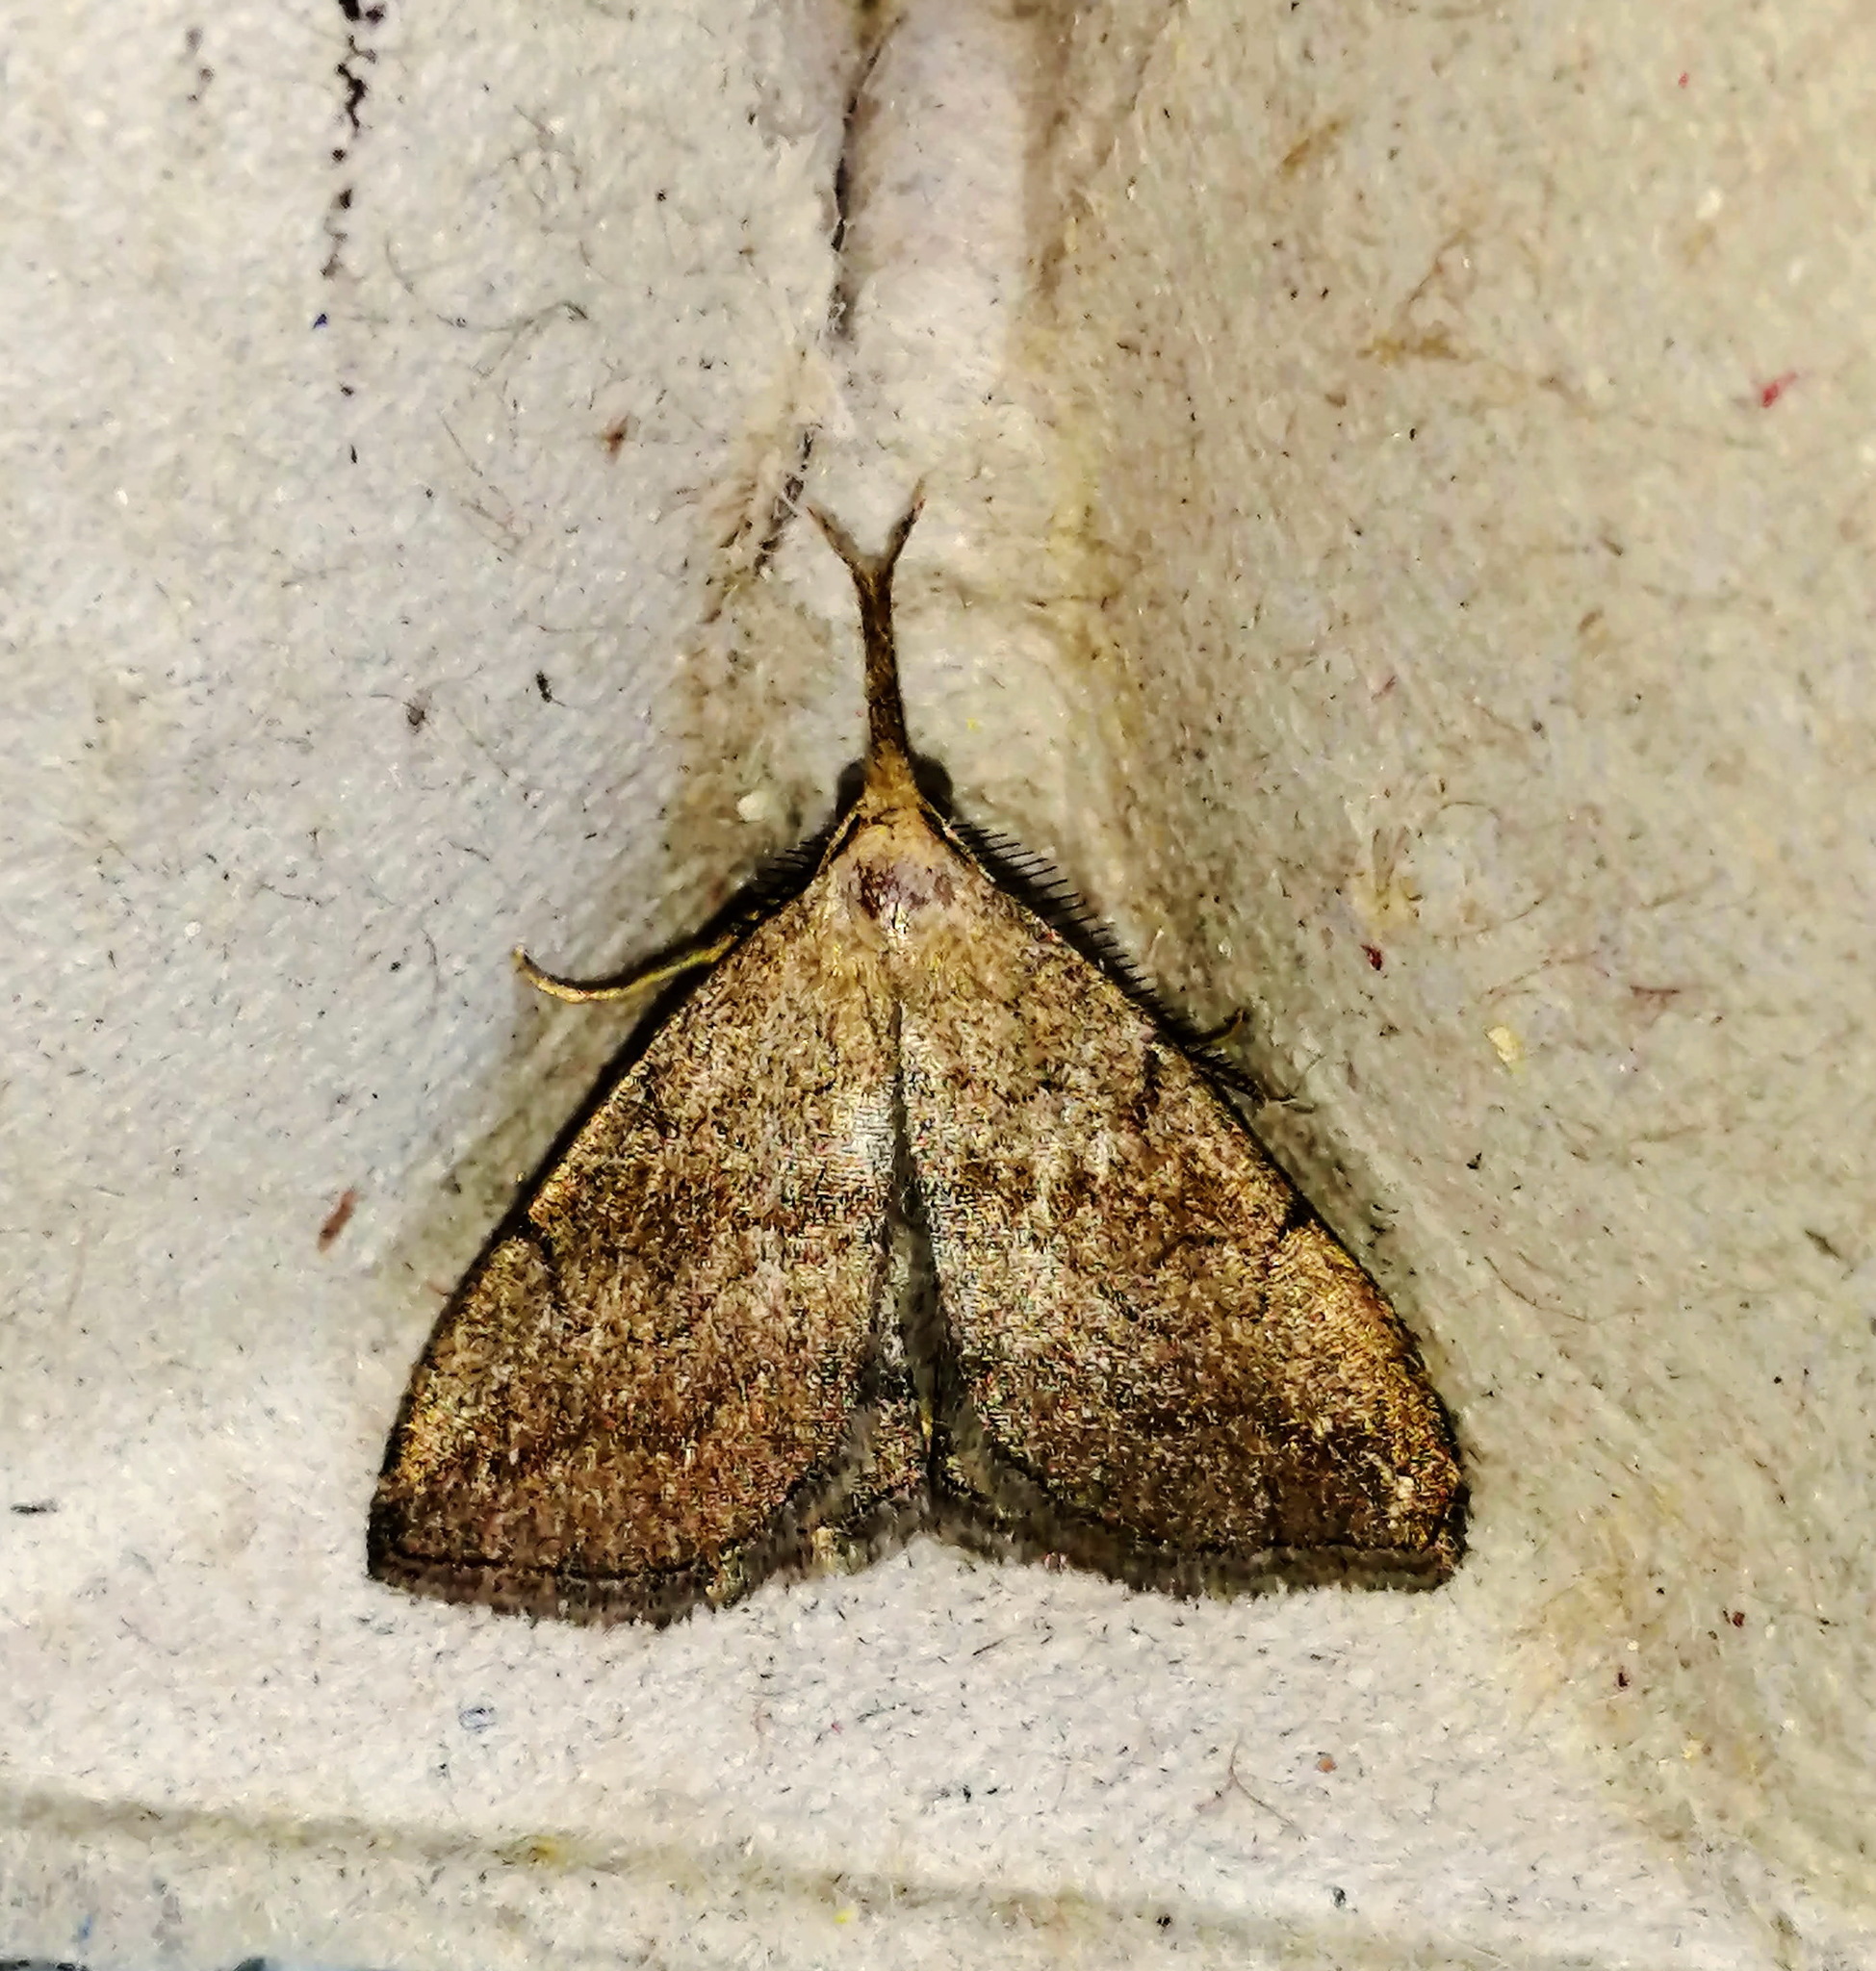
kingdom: Animalia
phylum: Arthropoda
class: Insecta
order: Lepidoptera
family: Erebidae
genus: Phalaenostola
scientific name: Phalaenostola metonalis
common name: Pale phalaenostola moth
